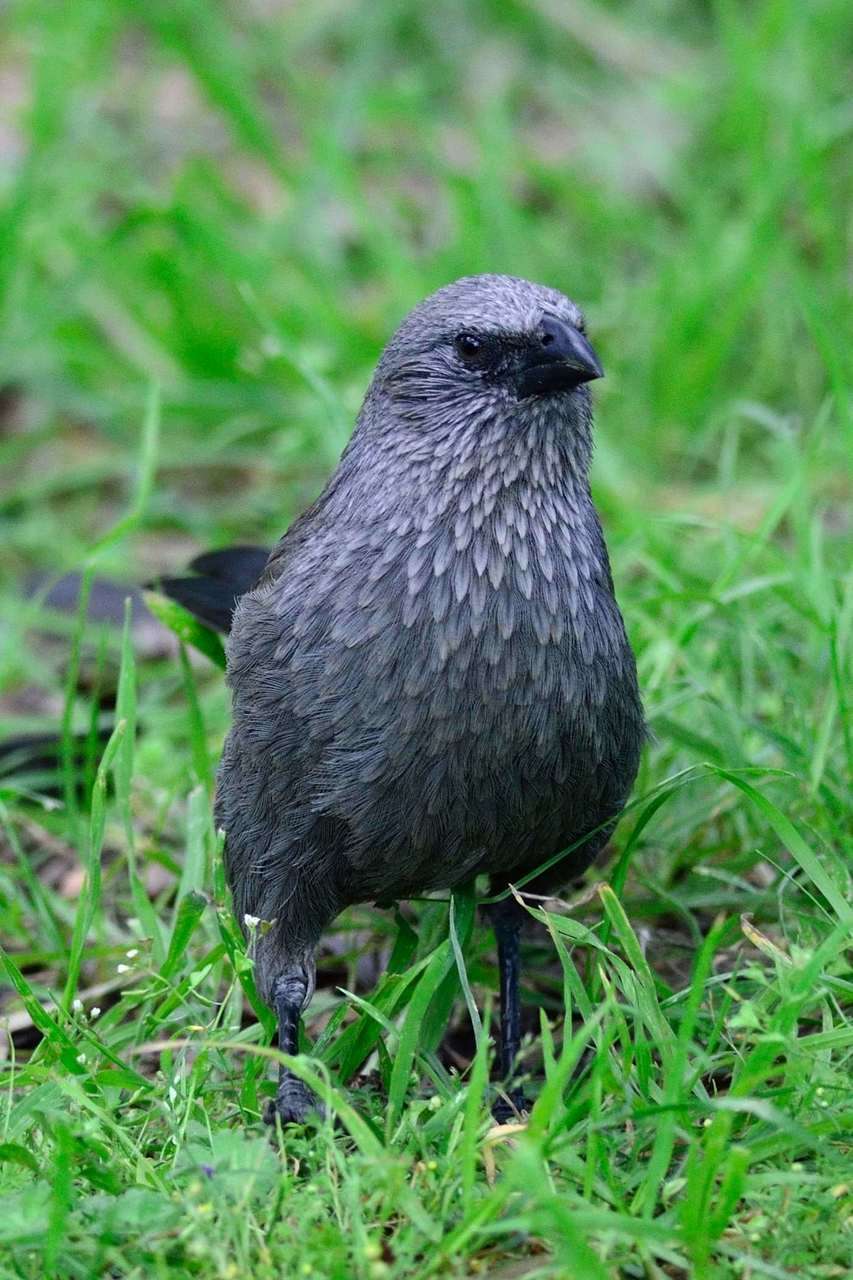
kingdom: Animalia
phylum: Chordata
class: Aves
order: Passeriformes
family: Corcoracidae
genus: Struthidea
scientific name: Struthidea cinerea
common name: Apostlebird
